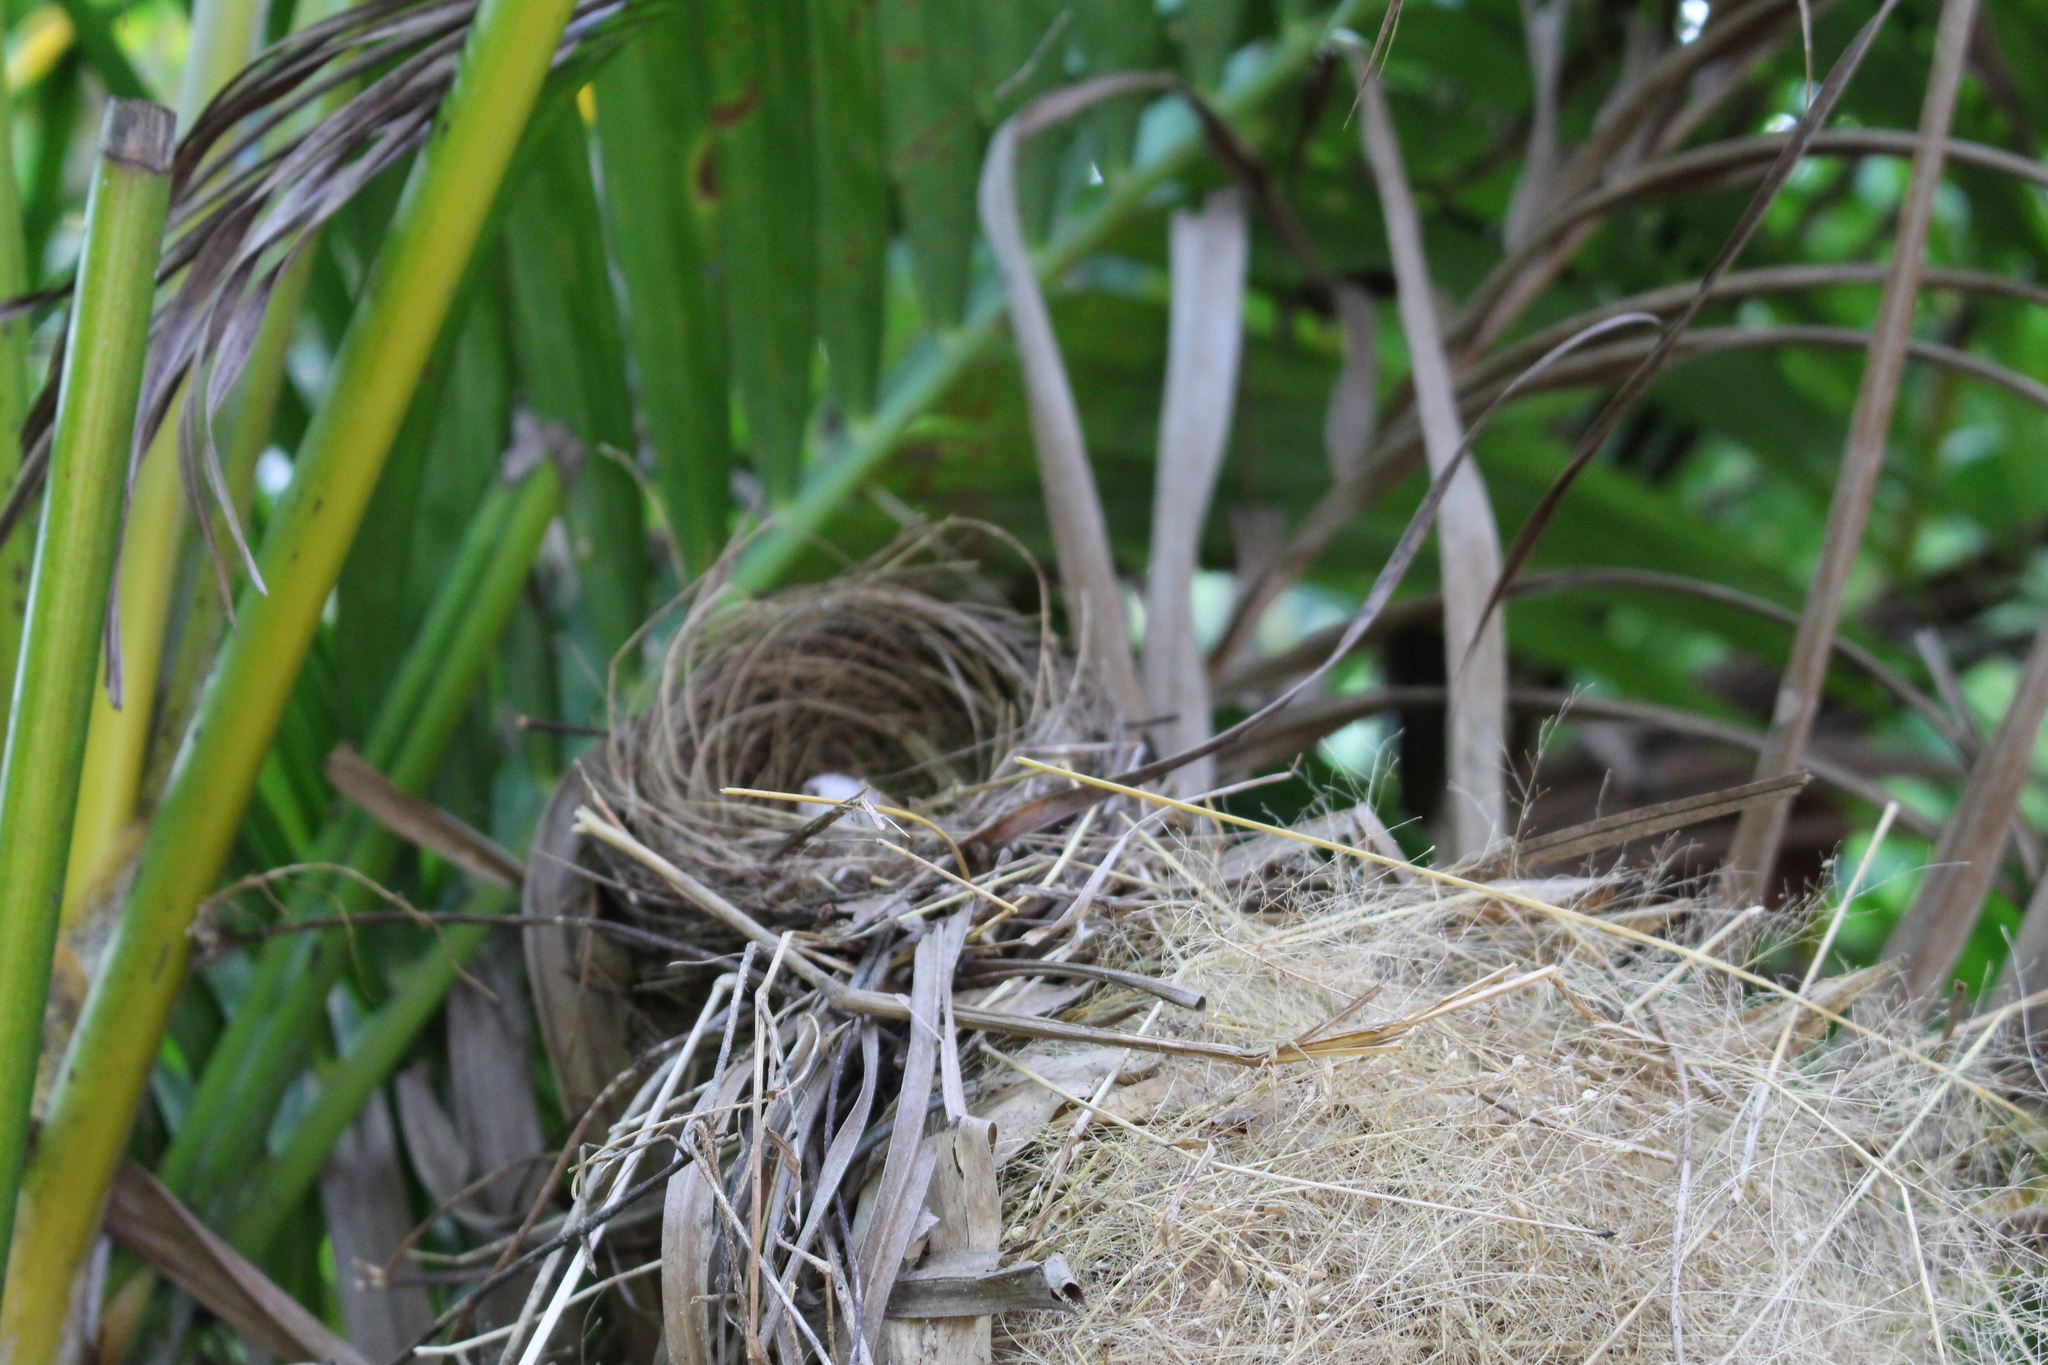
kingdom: Animalia
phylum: Chordata
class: Aves
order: Passeriformes
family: Pycnonotidae
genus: Pycnonotus
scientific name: Pycnonotus jocosus
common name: Red-whiskered bulbul
